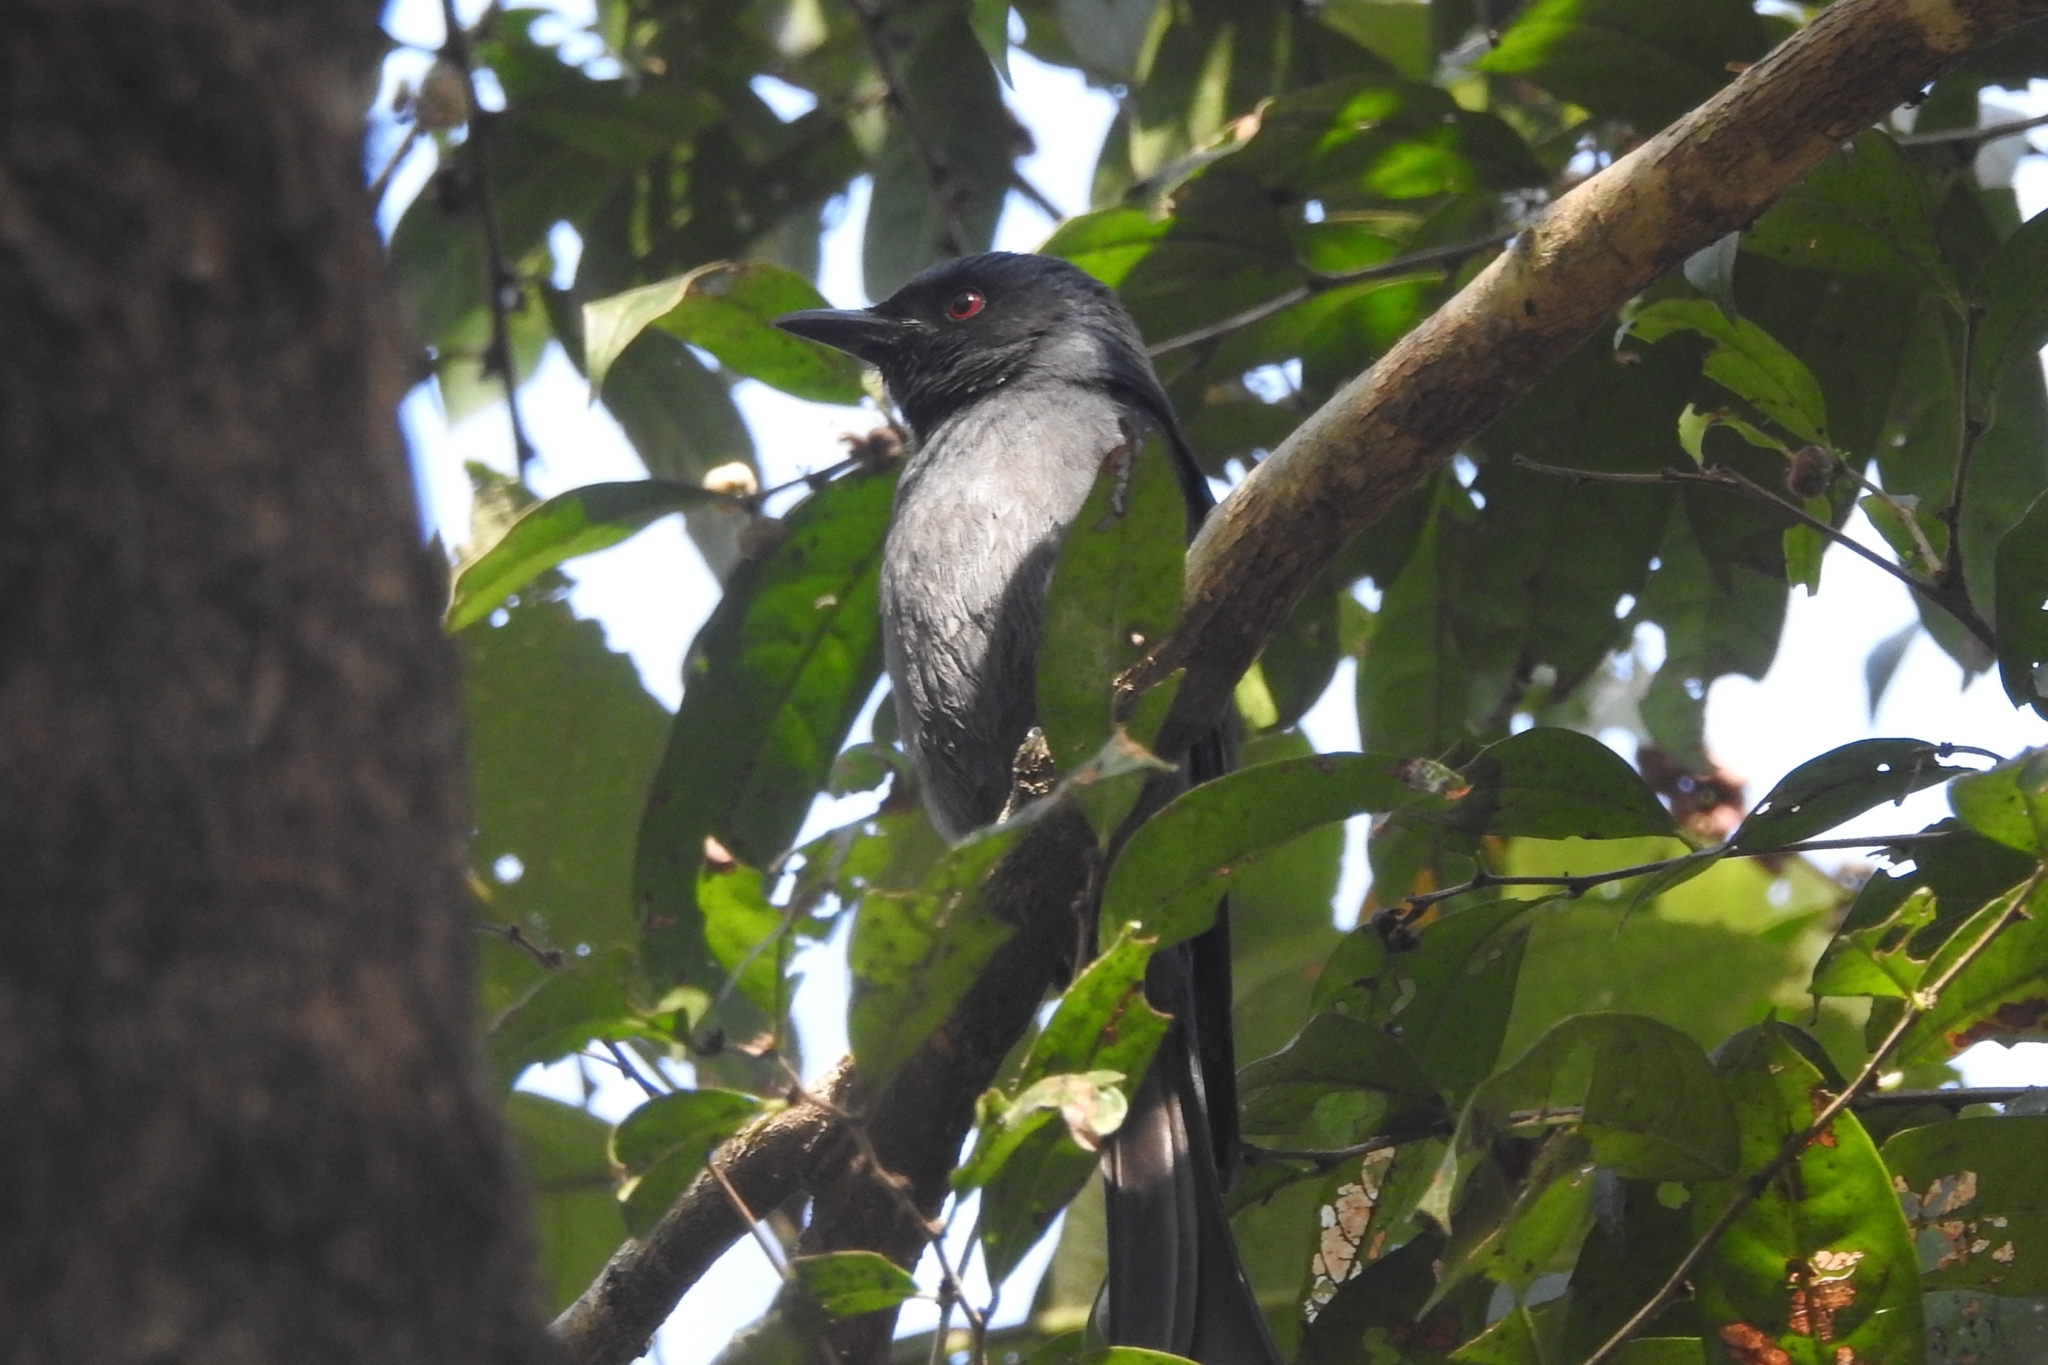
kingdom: Animalia
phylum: Chordata
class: Aves
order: Passeriformes
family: Dicruridae
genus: Dicrurus
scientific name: Dicrurus leucophaeus
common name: Ashy drongo
